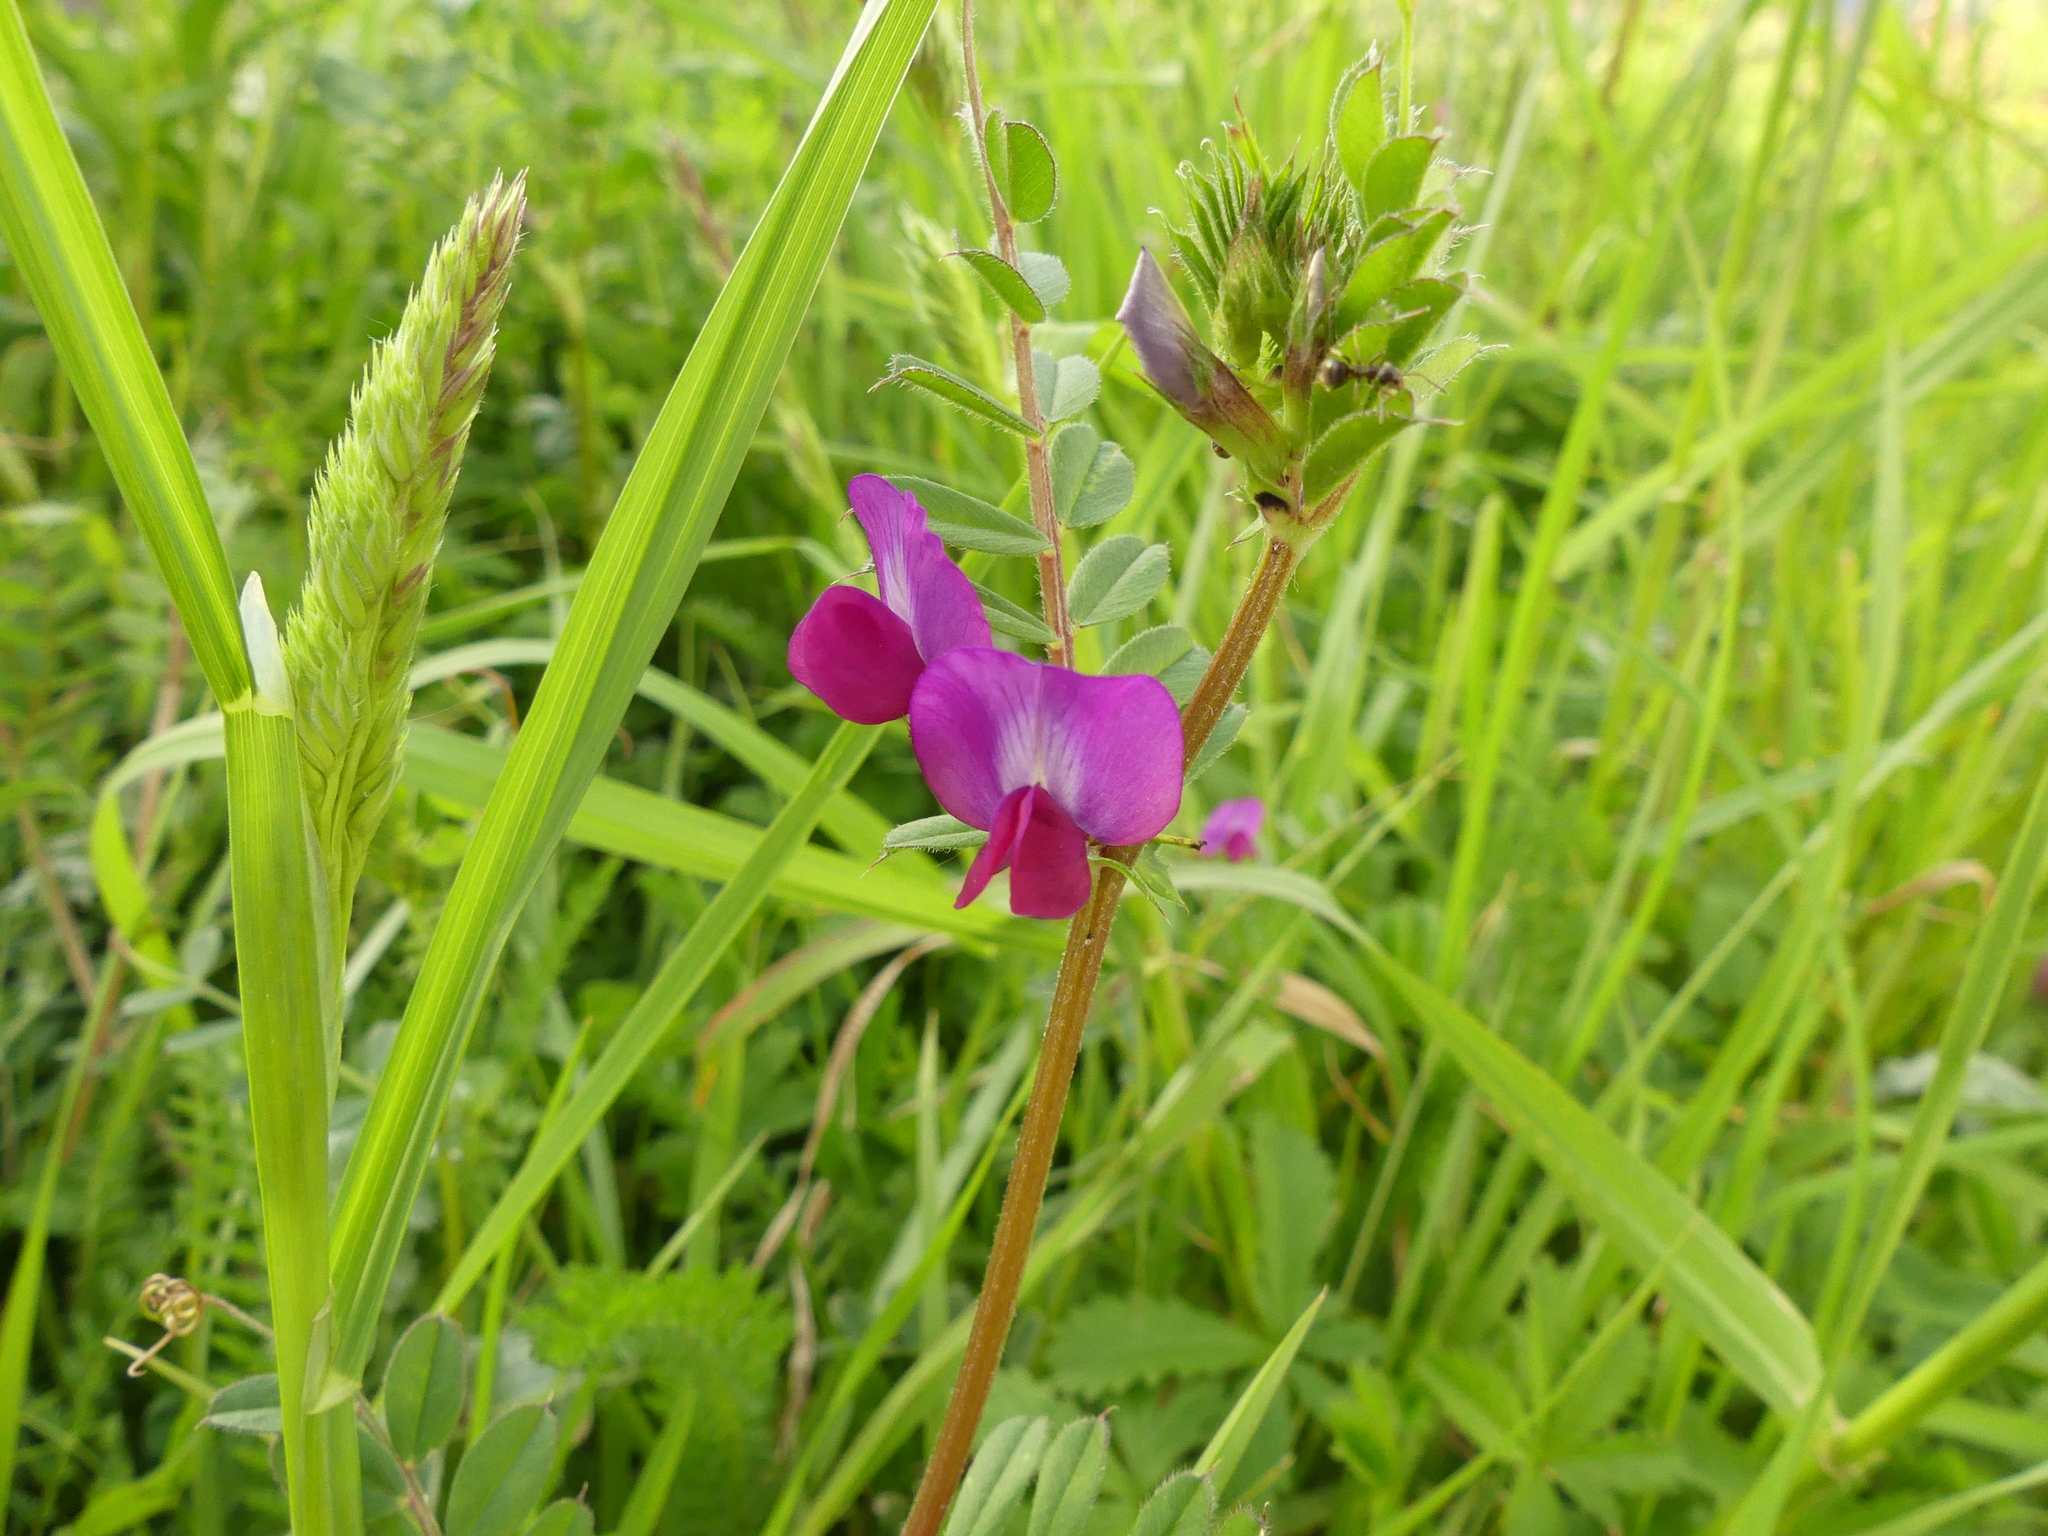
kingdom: Plantae
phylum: Tracheophyta
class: Magnoliopsida
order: Fabales
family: Fabaceae
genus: Vicia
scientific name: Vicia sativa
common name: Garden vetch
